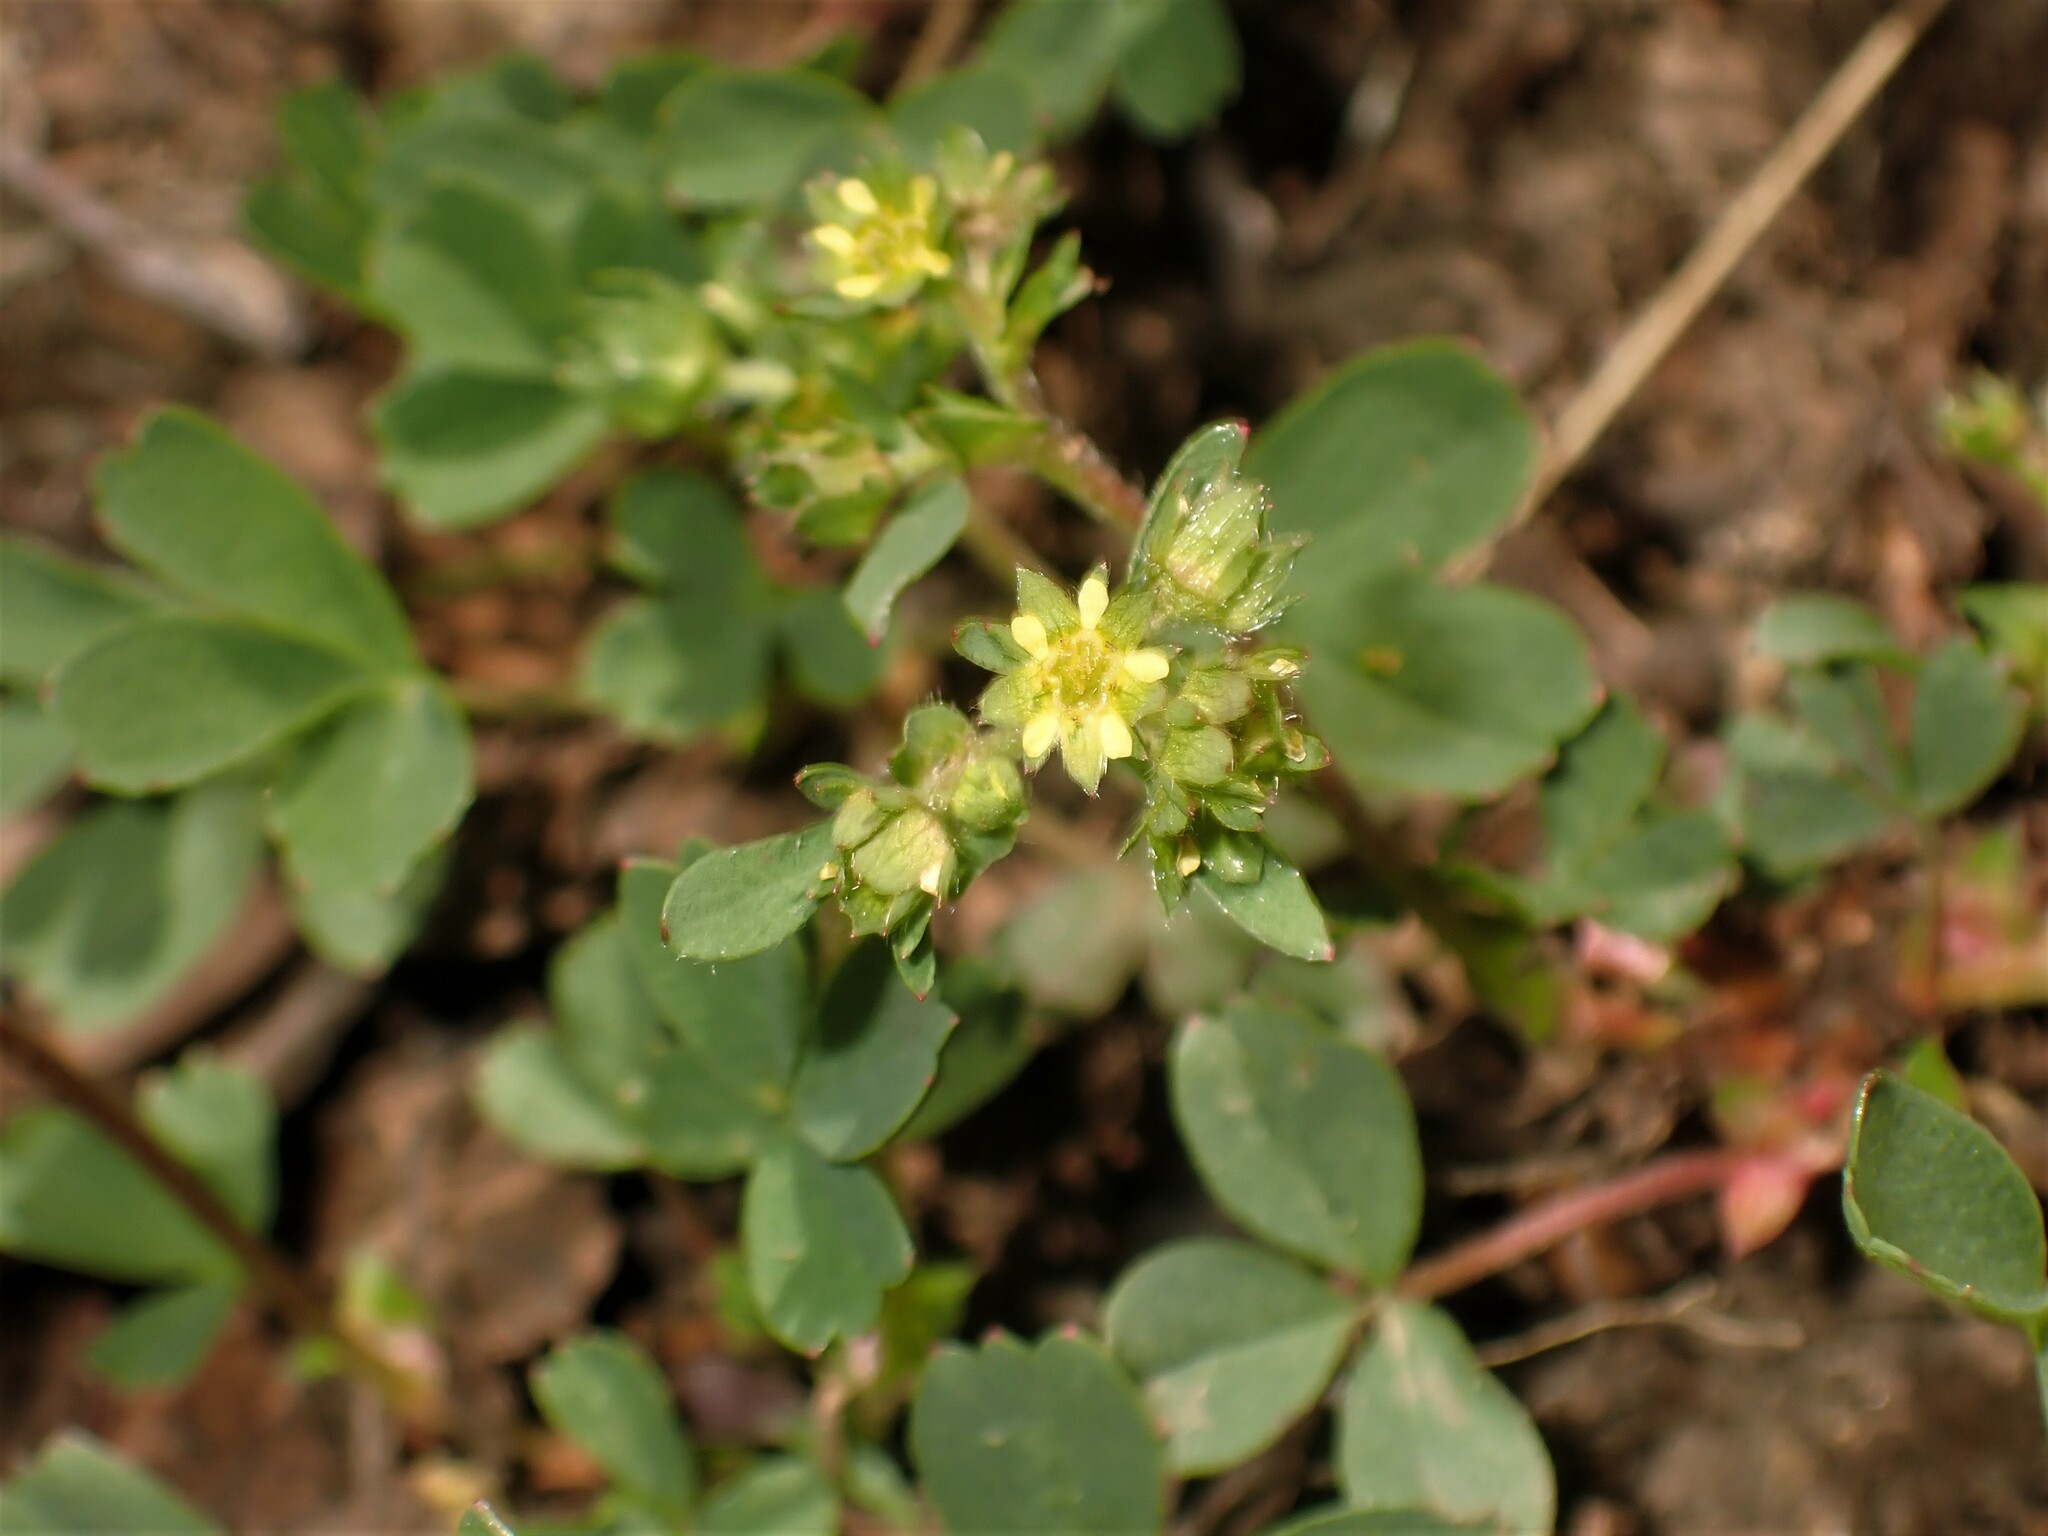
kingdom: Plantae
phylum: Tracheophyta
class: Magnoliopsida
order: Rosales
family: Rosaceae
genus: Sibbaldia
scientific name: Sibbaldia procumbens
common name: Creeping sibbaldia
